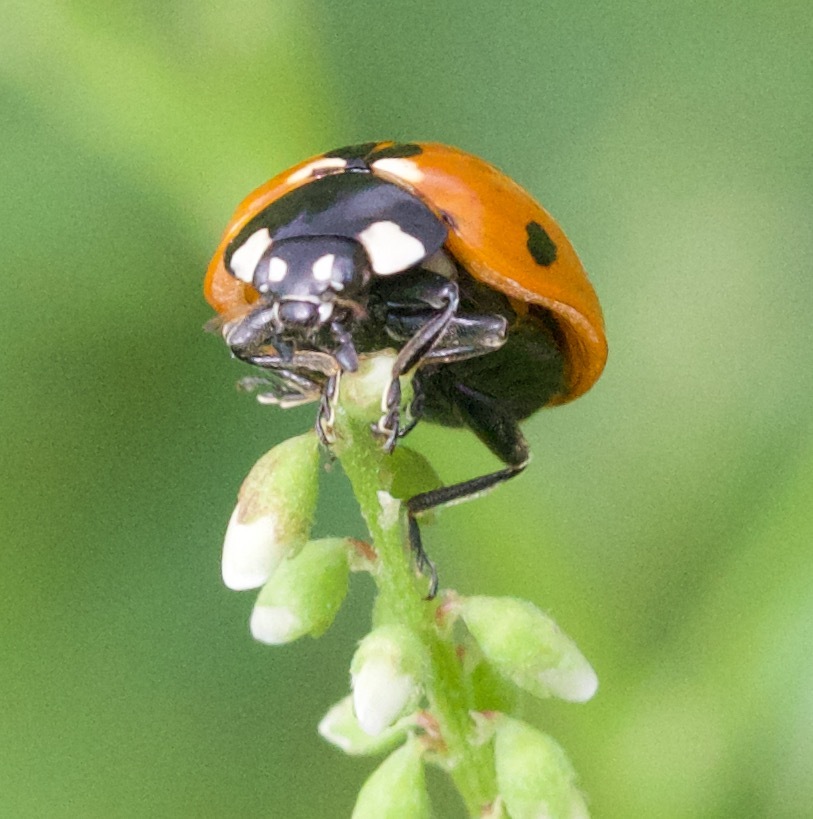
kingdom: Animalia
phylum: Arthropoda
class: Insecta
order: Coleoptera
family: Coccinellidae
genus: Coccinella
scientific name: Coccinella septempunctata
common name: Sevenspotted lady beetle
